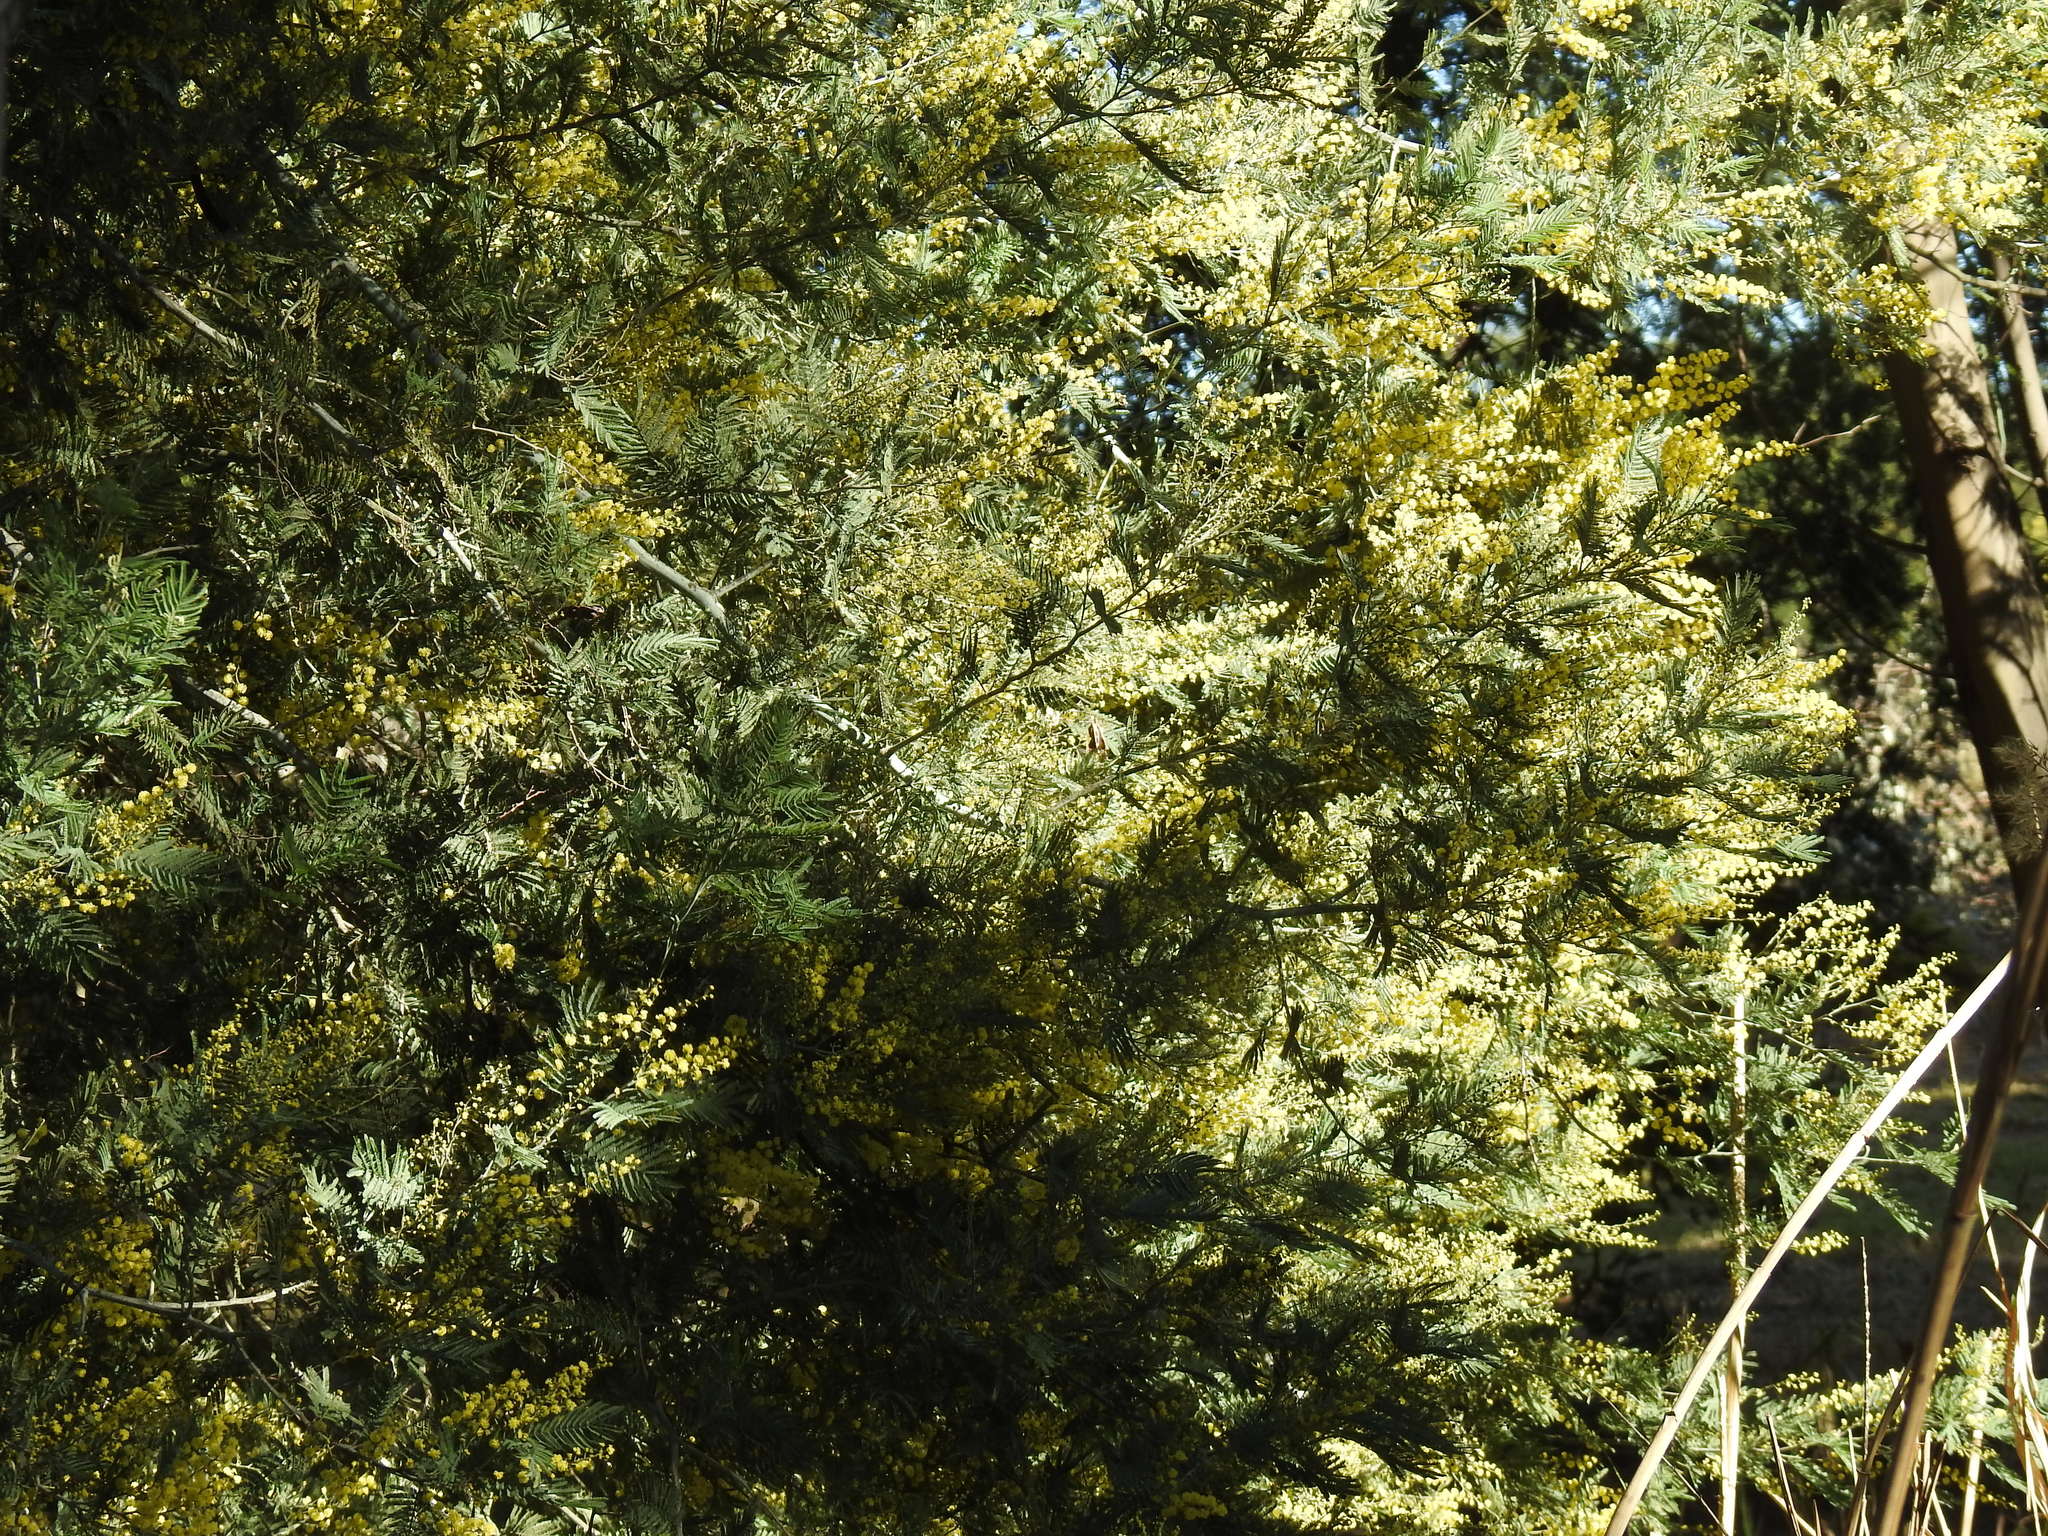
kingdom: Plantae
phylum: Tracheophyta
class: Magnoliopsida
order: Fabales
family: Fabaceae
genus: Acacia
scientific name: Acacia dealbata
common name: Silver wattle
